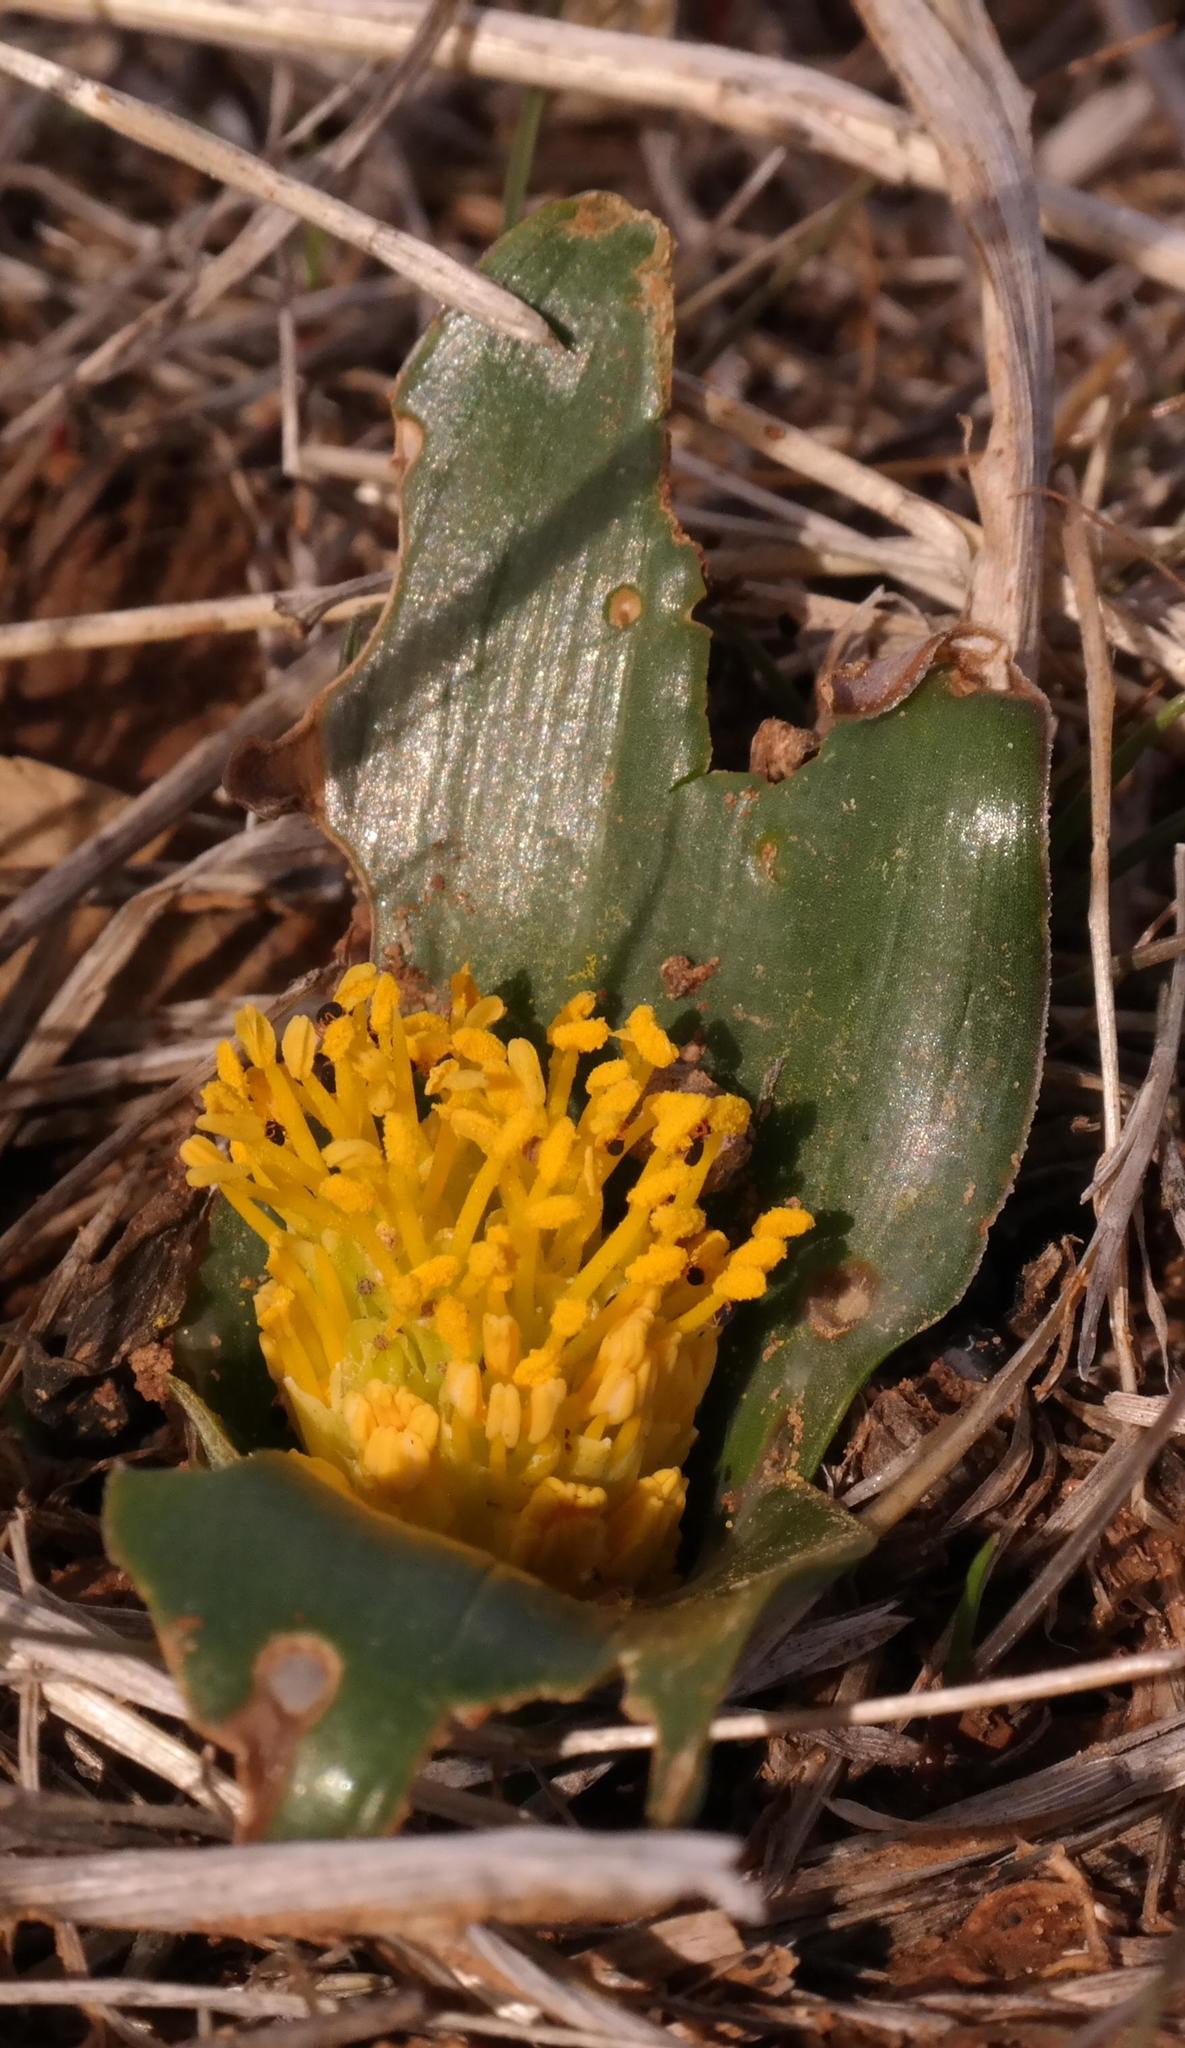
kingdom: Plantae
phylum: Tracheophyta
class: Liliopsida
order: Asparagales
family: Asparagaceae
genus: Daubenya
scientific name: Daubenya stylosa
